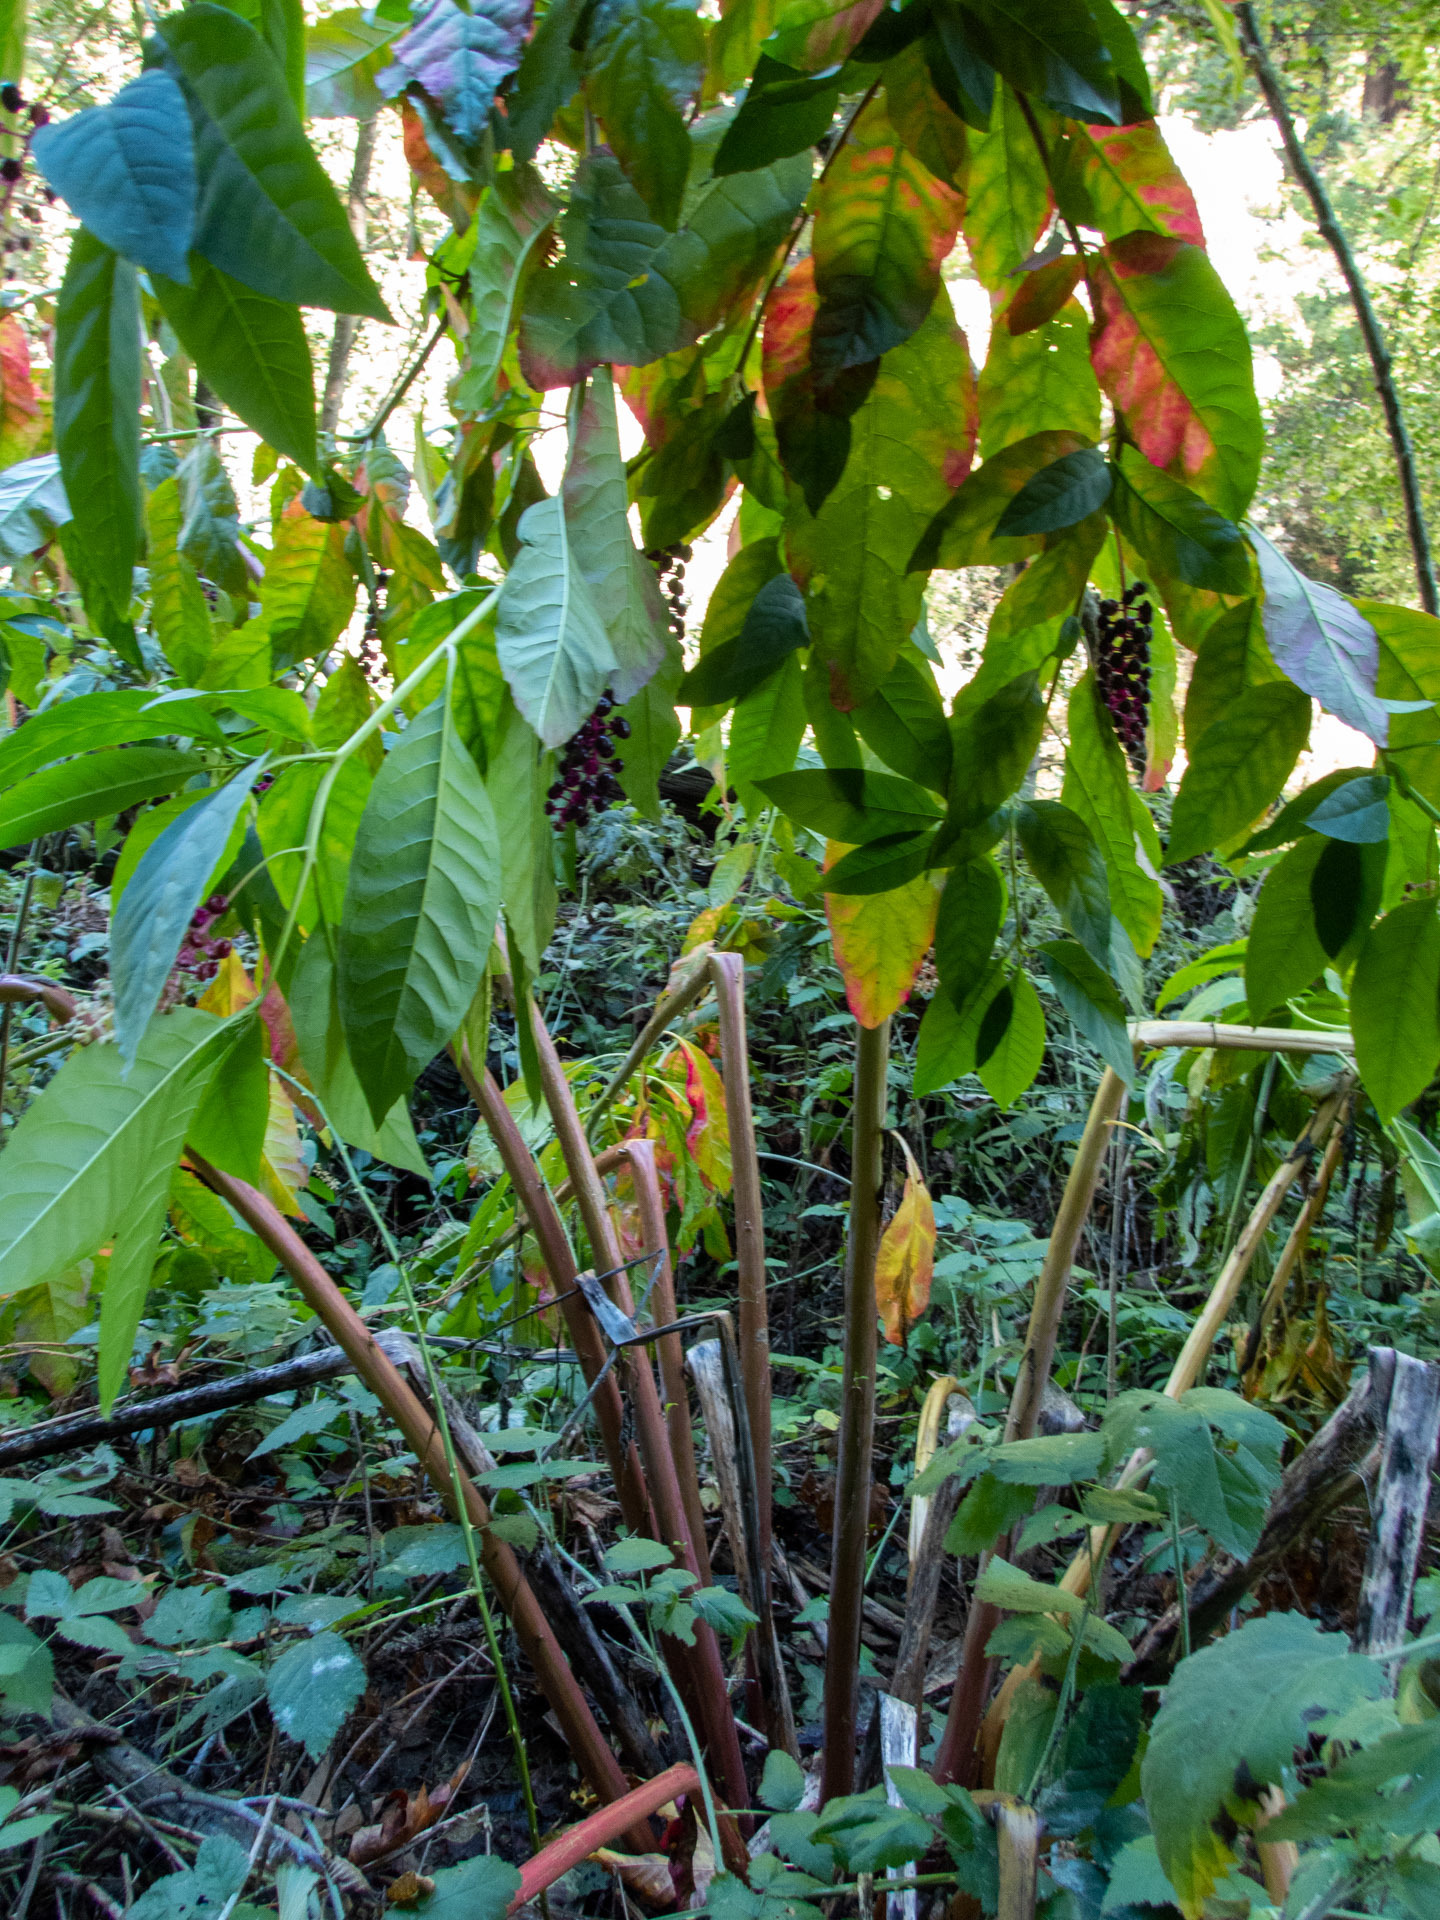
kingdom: Plantae
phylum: Tracheophyta
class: Magnoliopsida
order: Caryophyllales
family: Phytolaccaceae
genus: Phytolacca
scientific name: Phytolacca americana
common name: American pokeweed
